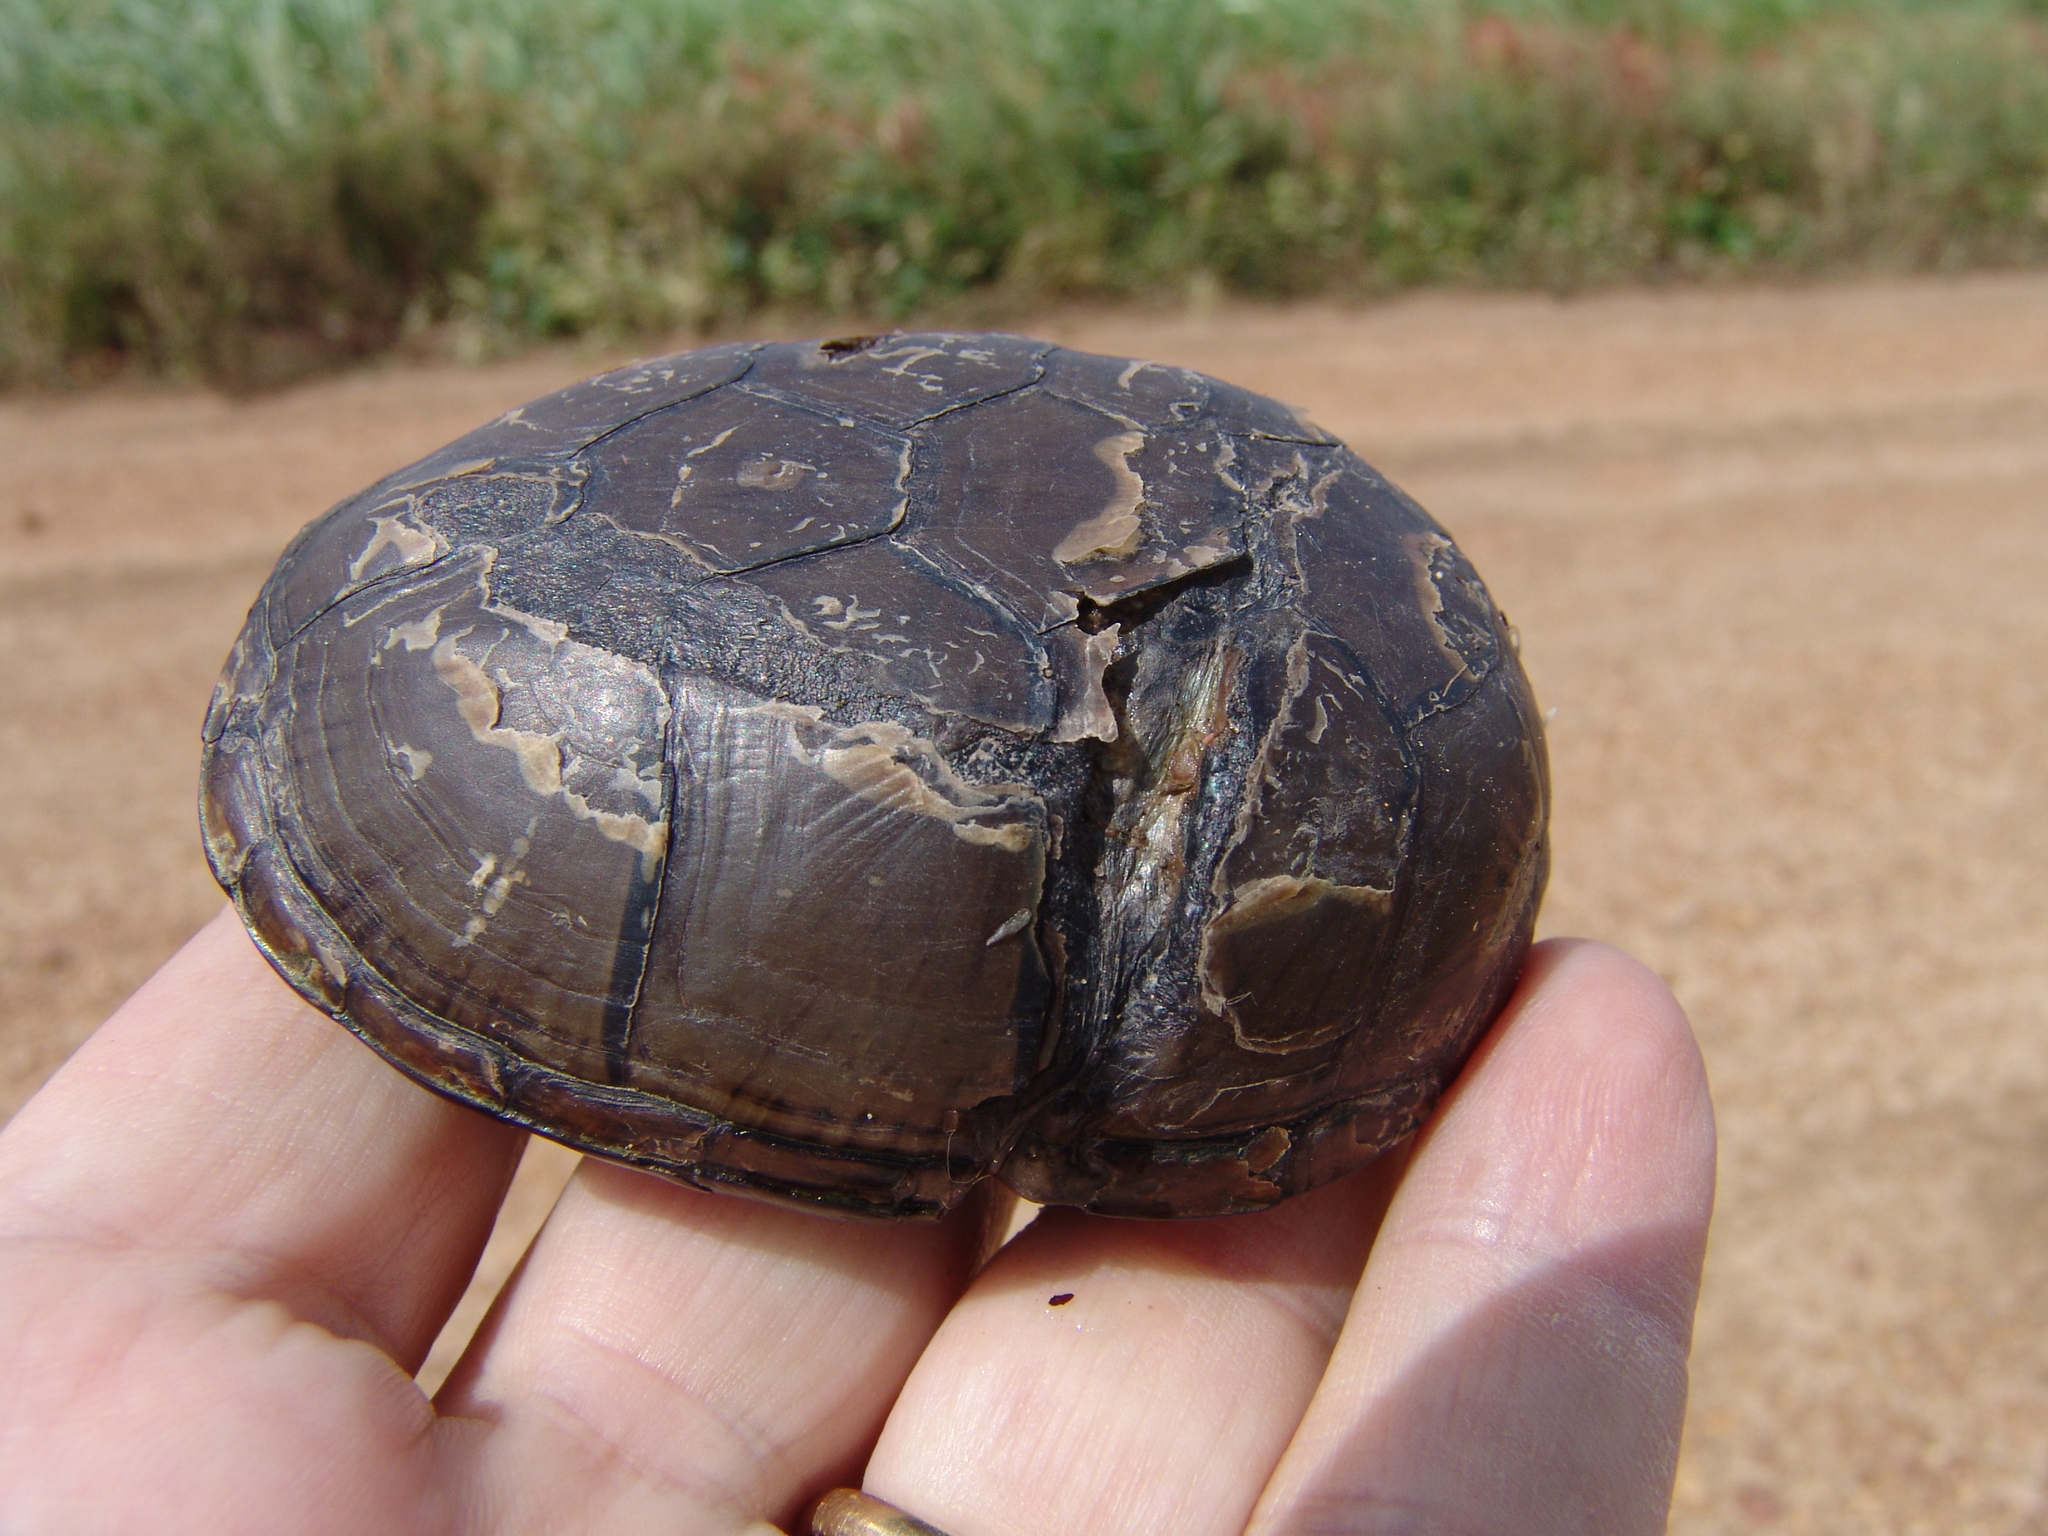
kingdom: Animalia
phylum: Chordata
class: Testudines
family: Kinosternidae
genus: Kinosternon
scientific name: Kinosternon subrubrum
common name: Eastern mud turtle
